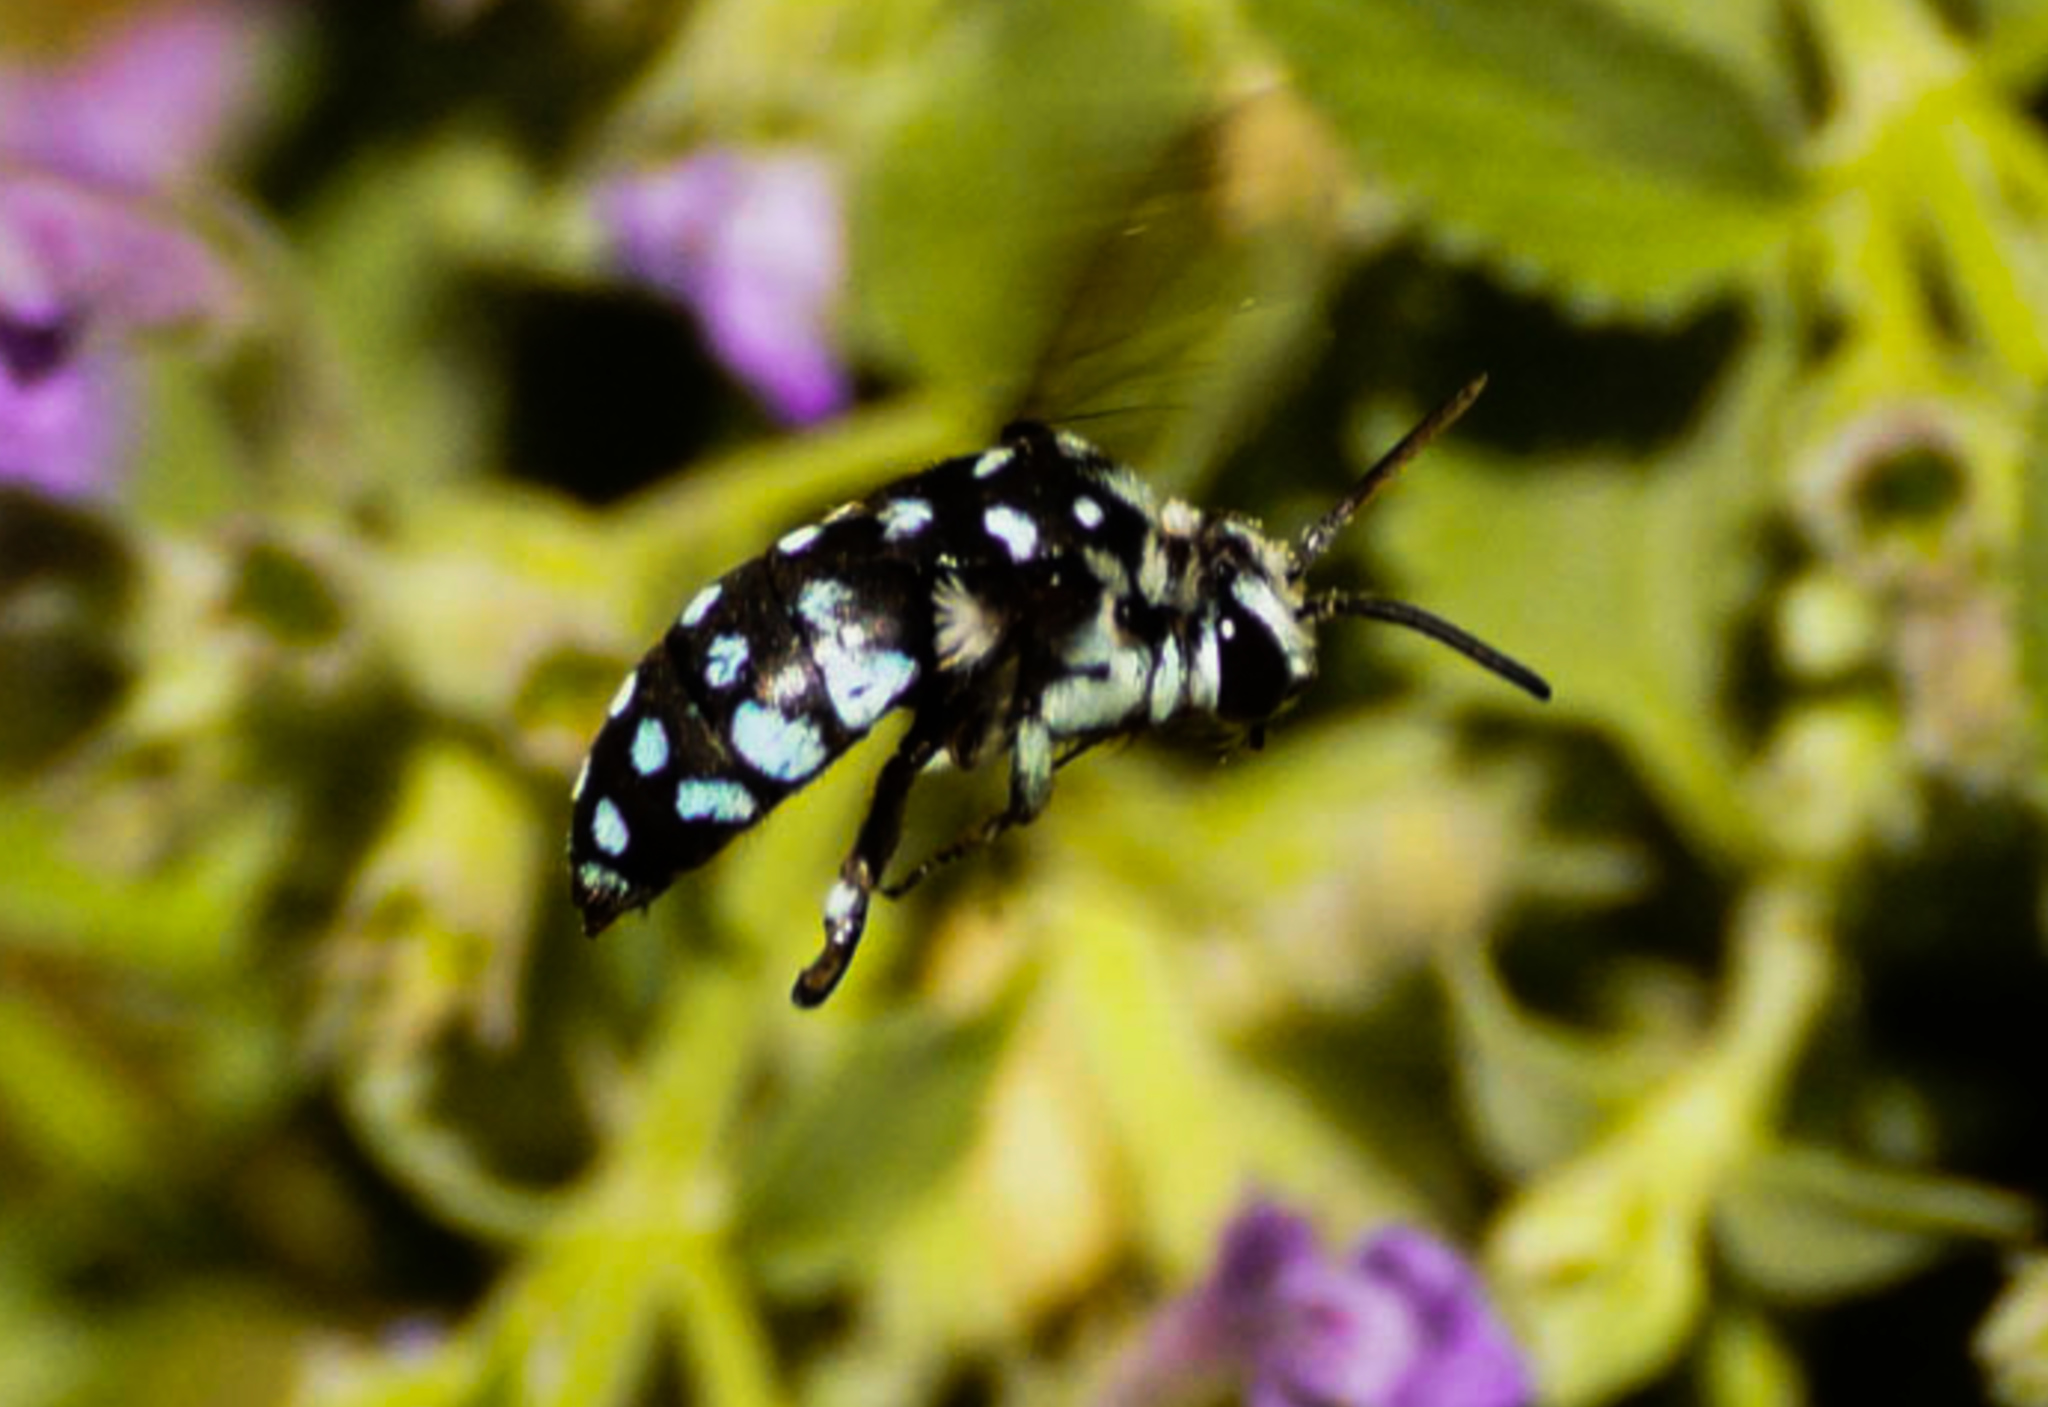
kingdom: Animalia
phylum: Arthropoda
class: Insecta
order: Hymenoptera
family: Apidae
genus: Thyreus
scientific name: Thyreus caeruleopunctatus
